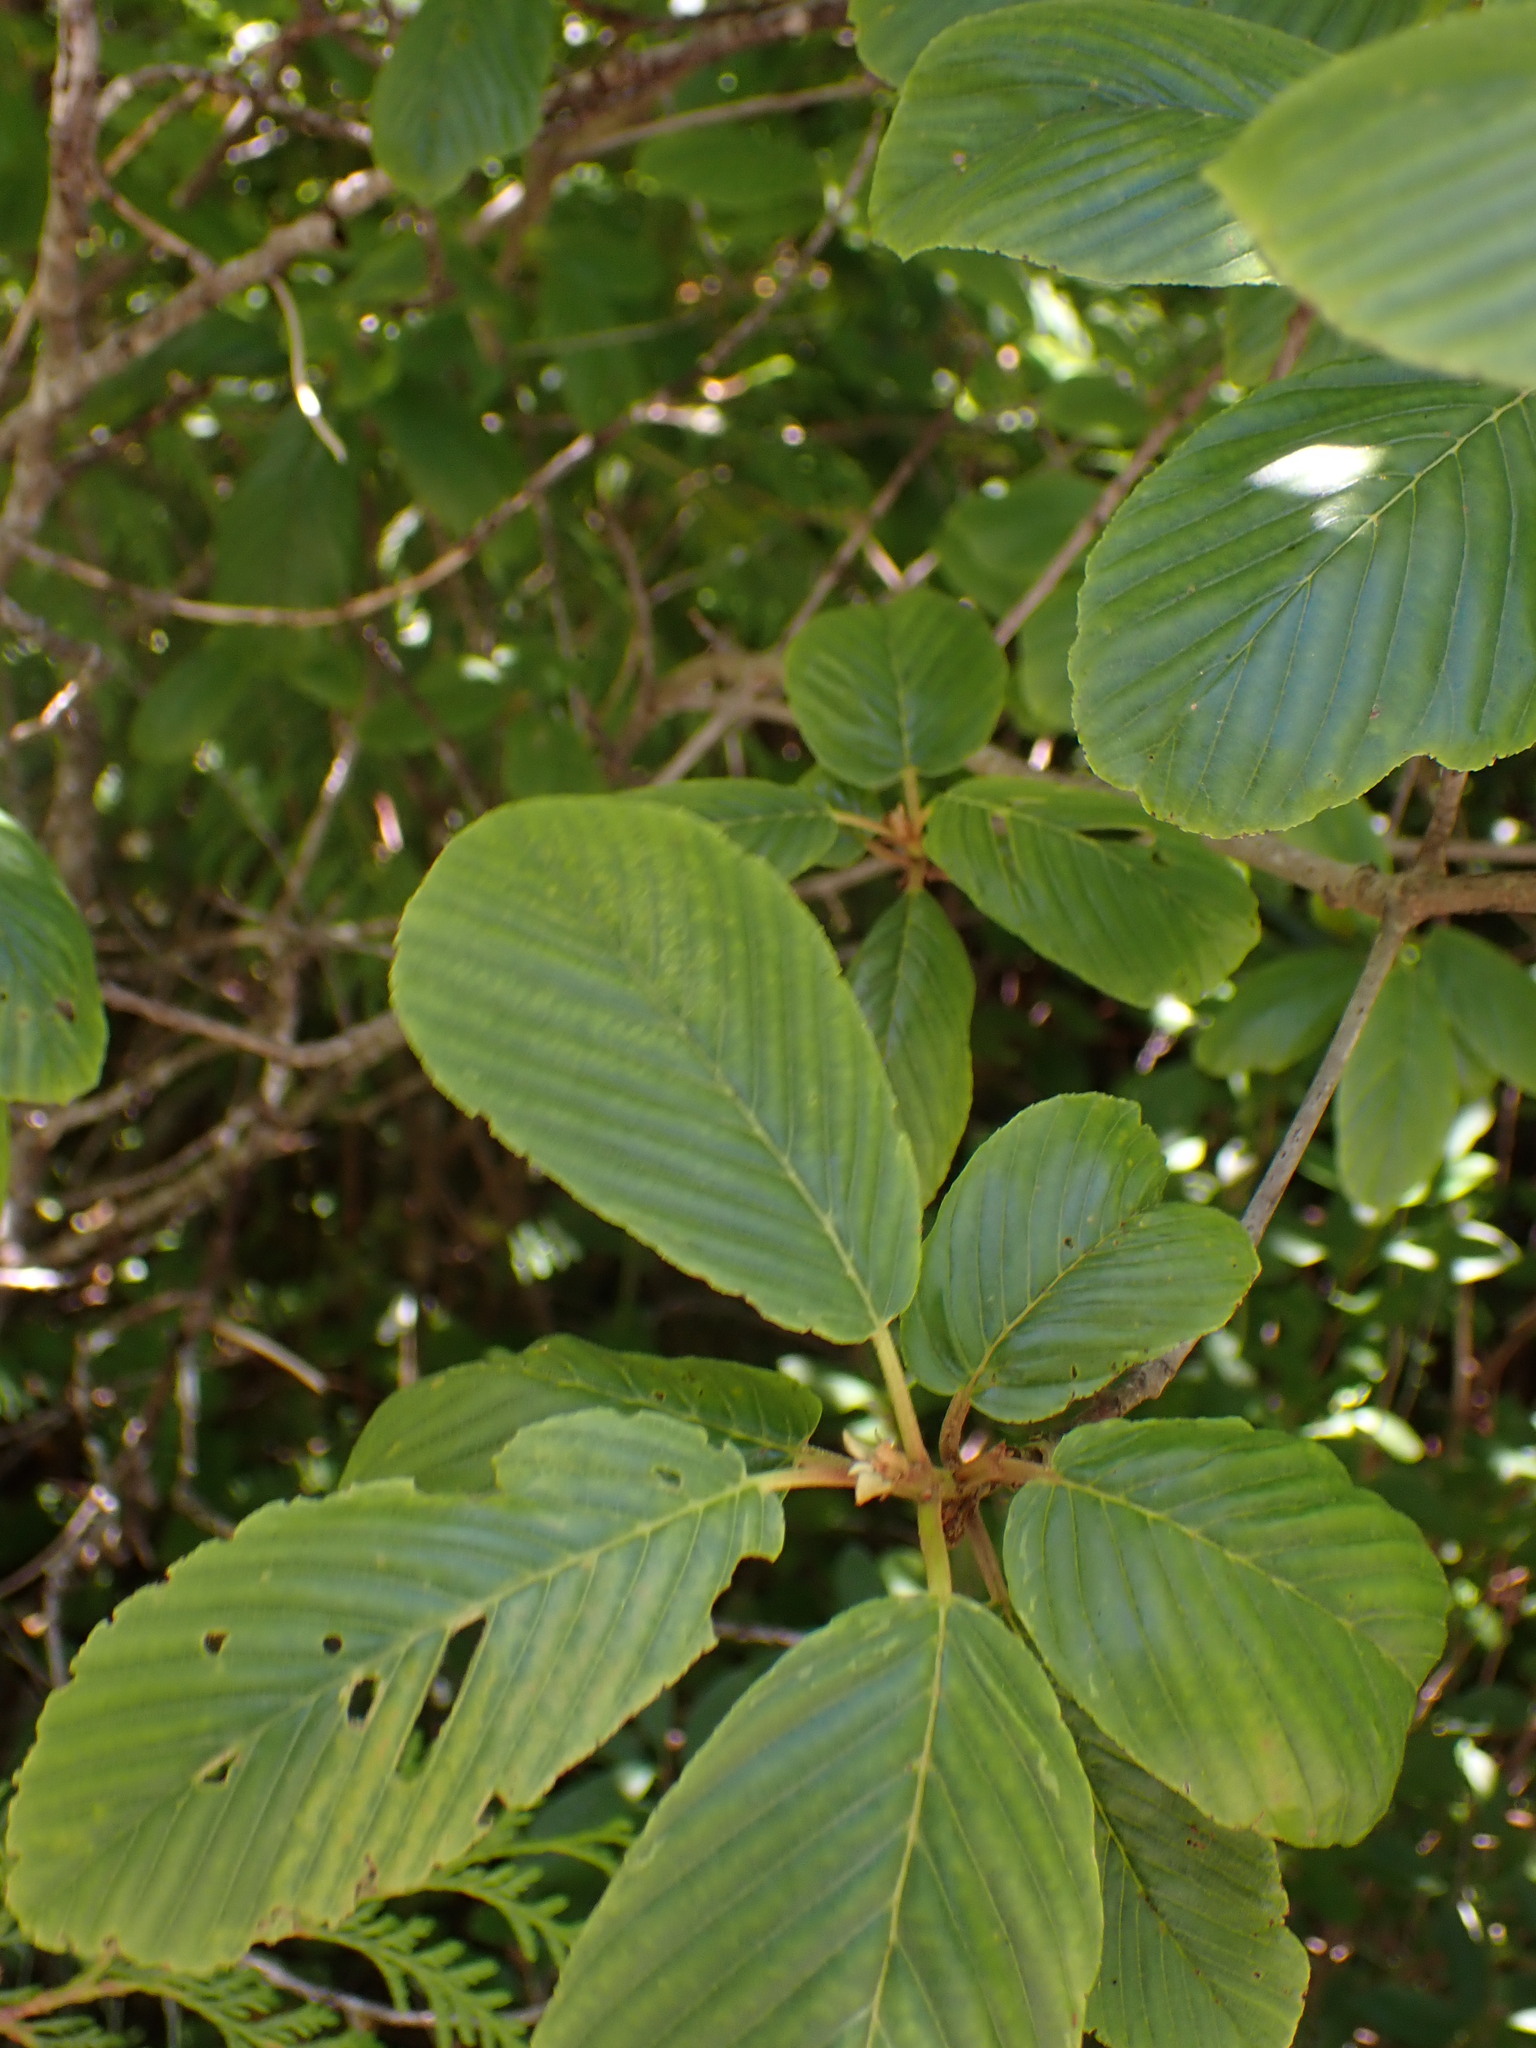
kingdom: Plantae
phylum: Tracheophyta
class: Magnoliopsida
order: Rosales
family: Rhamnaceae
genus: Frangula
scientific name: Frangula purshiana
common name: Cascara buckthorn
